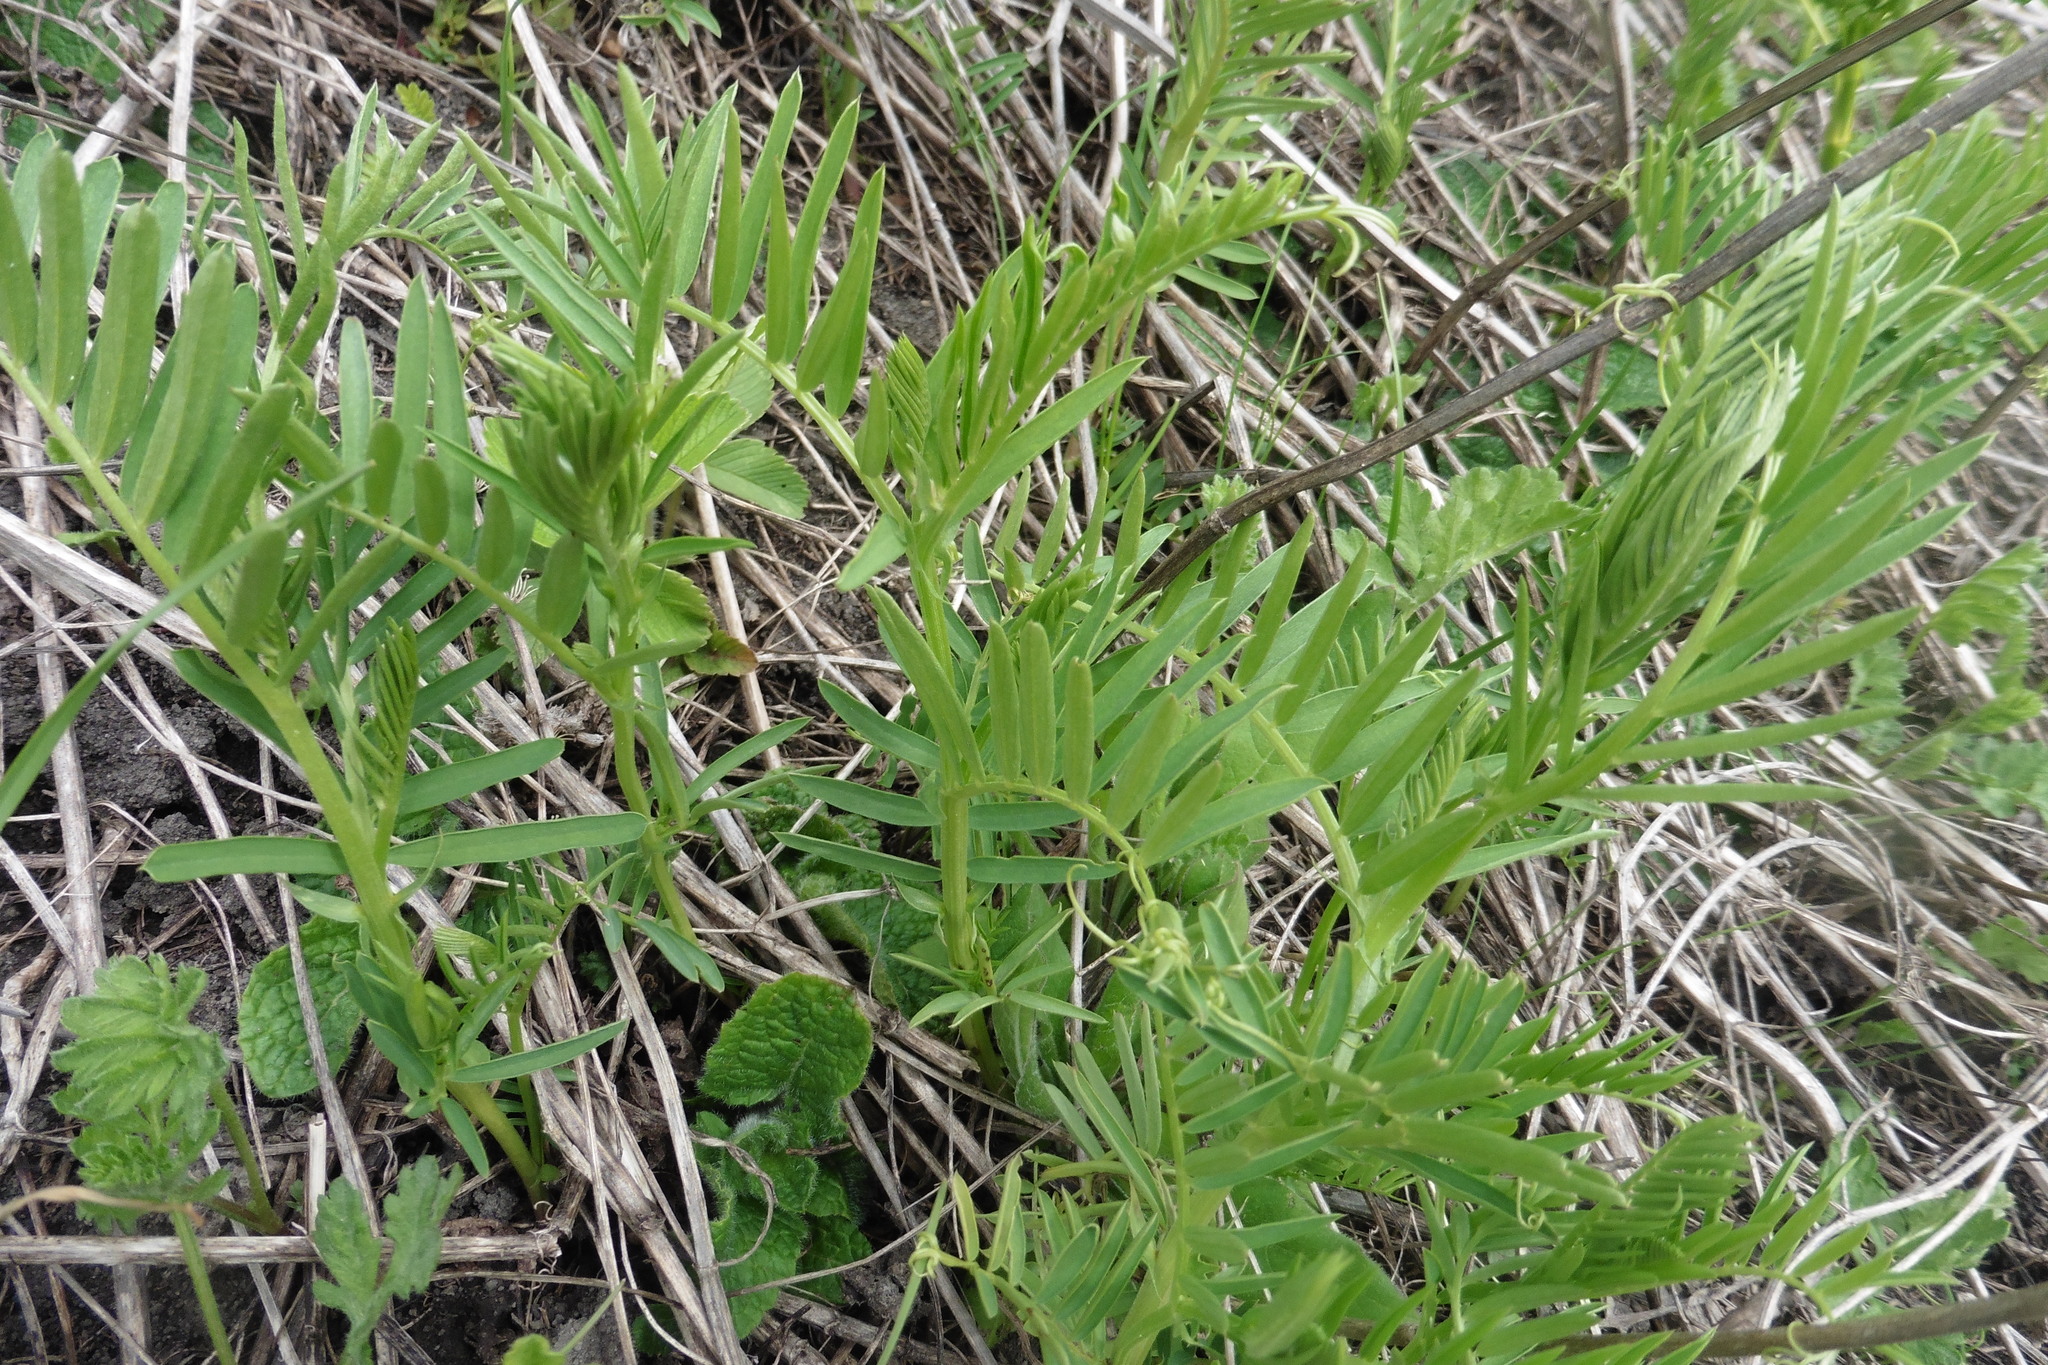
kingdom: Plantae
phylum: Tracheophyta
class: Magnoliopsida
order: Fabales
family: Fabaceae
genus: Vicia
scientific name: Vicia tenuifolia
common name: Fine-leaved vetch
